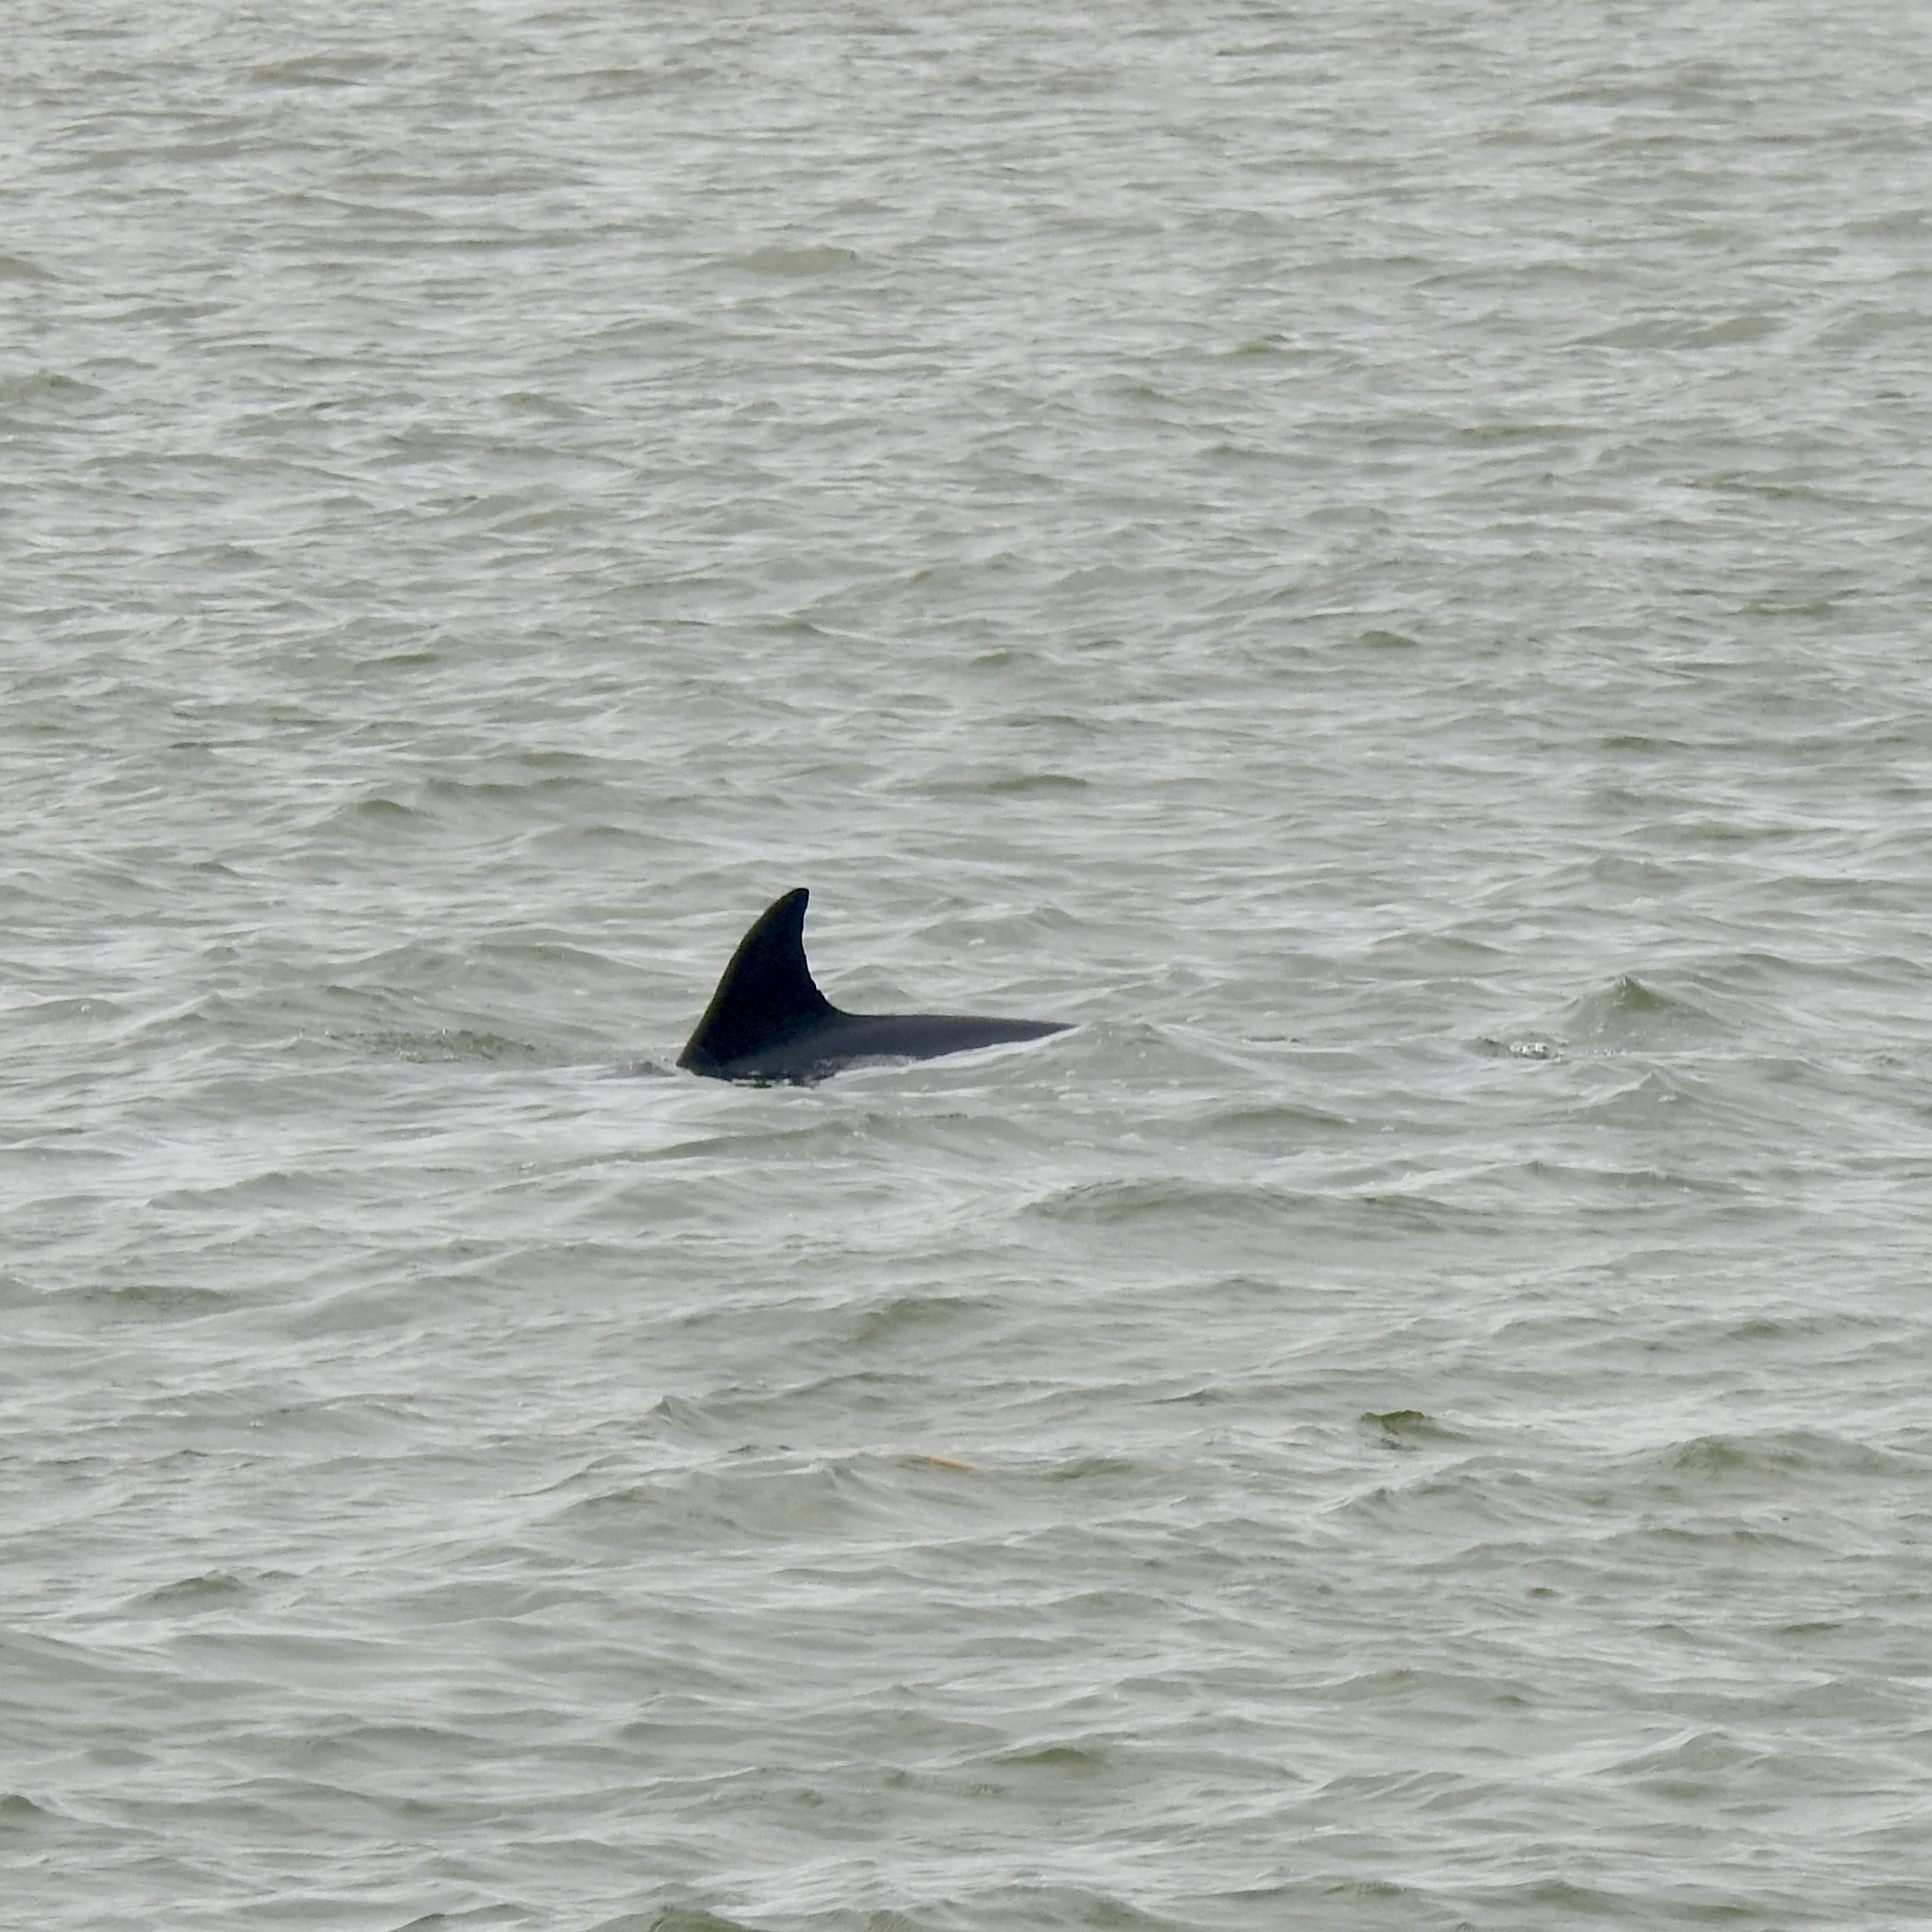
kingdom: Animalia
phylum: Chordata
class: Mammalia
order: Cetacea
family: Delphinidae
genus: Tursiops
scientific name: Tursiops truncatus
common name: Bottlenose dolphin
